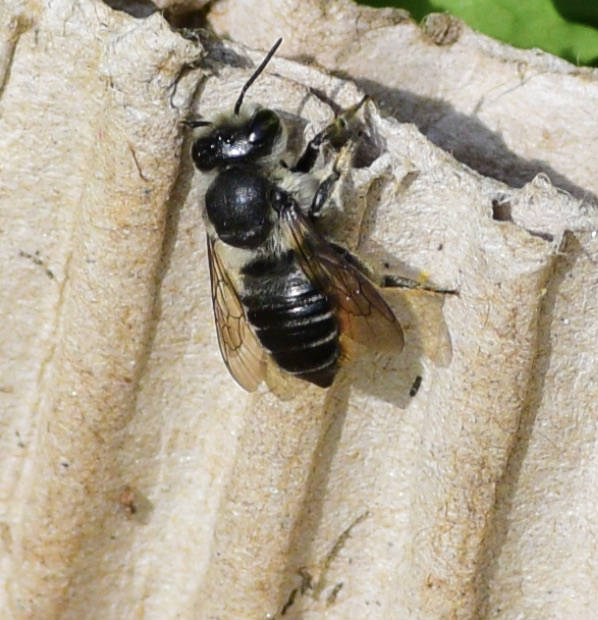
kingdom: Animalia
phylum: Arthropoda
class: Insecta
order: Hymenoptera
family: Megachilidae
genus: Megachile
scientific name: Megachile mendica
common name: Flat-tailed leafcutter
